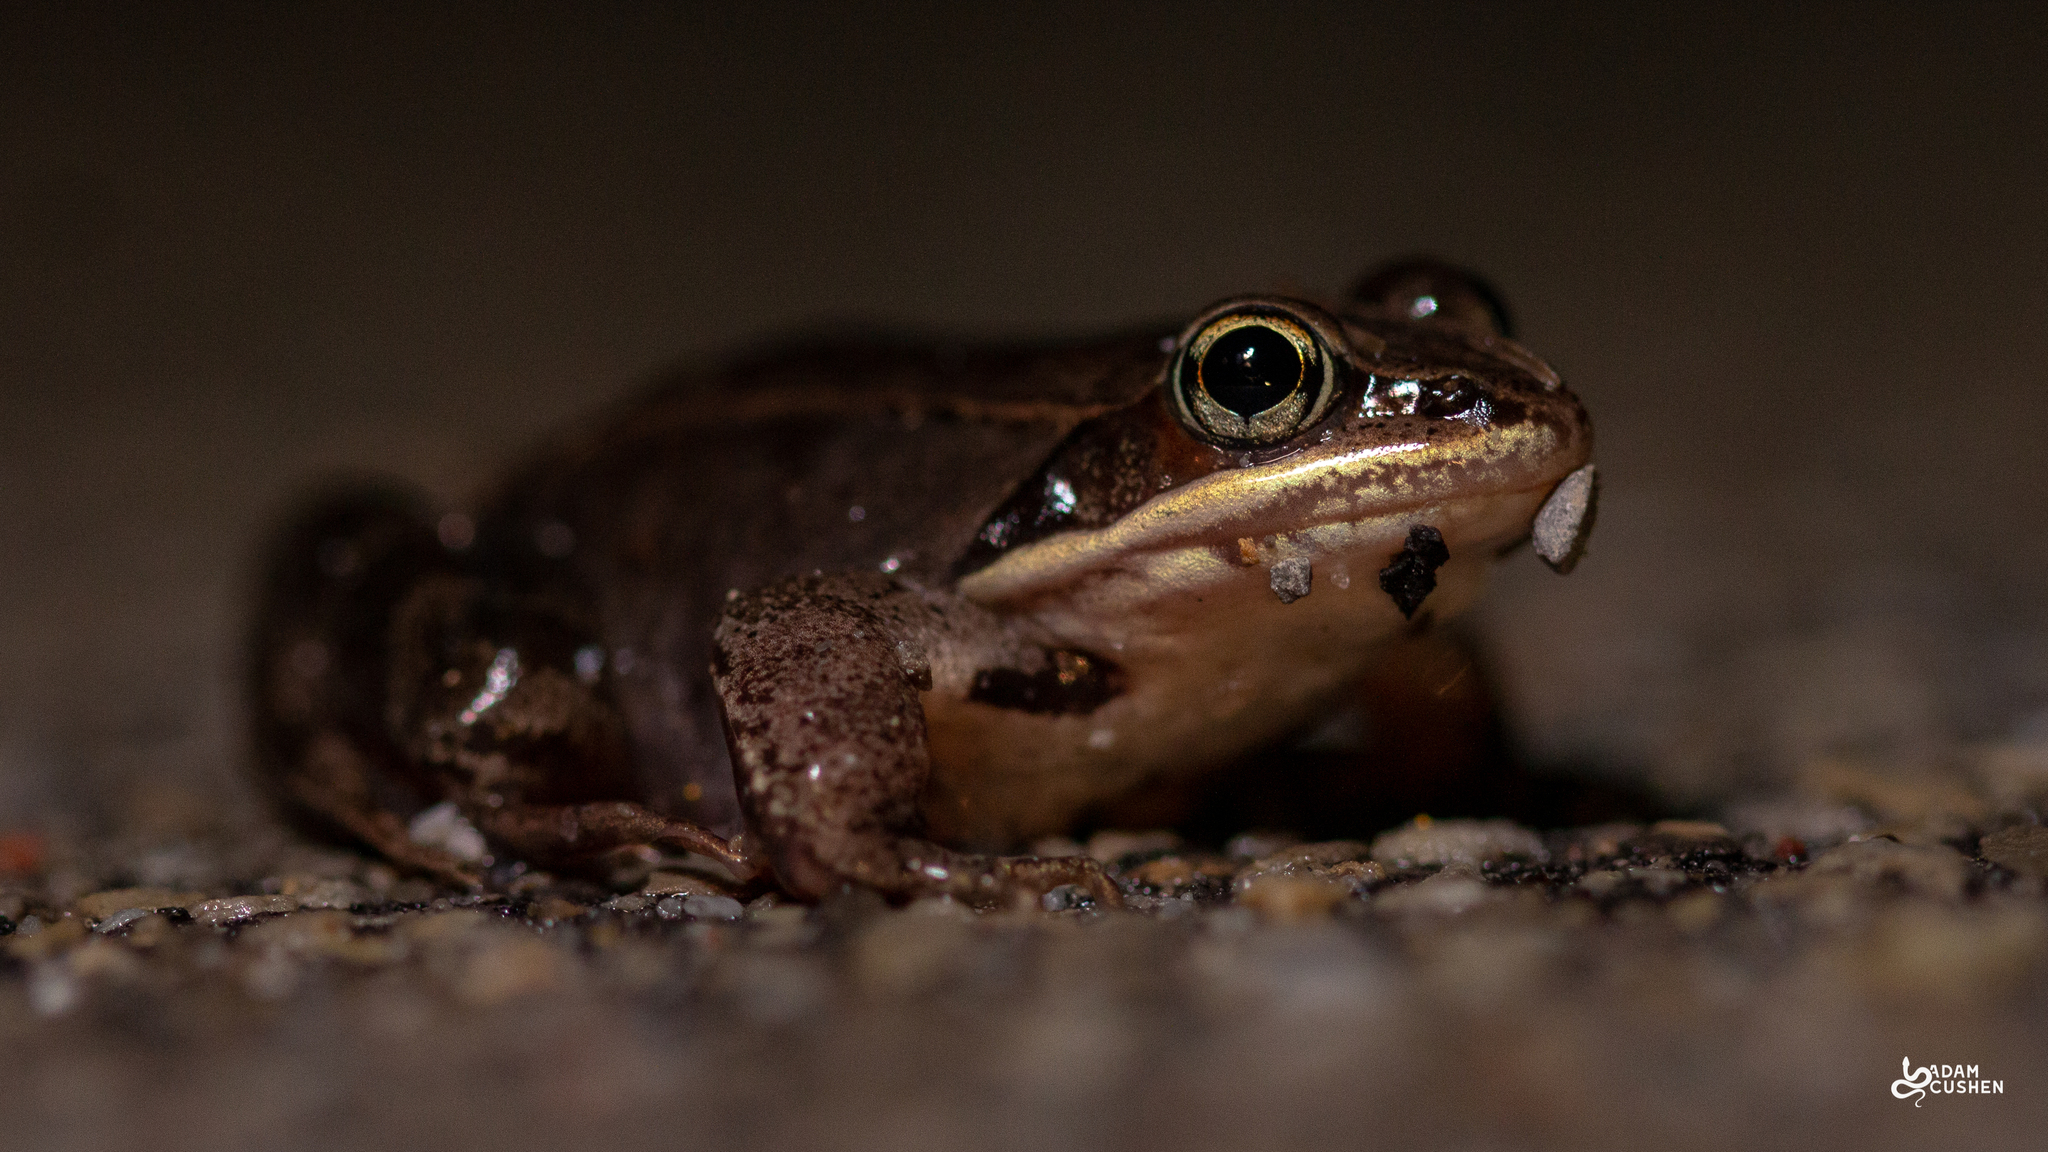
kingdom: Animalia
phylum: Chordata
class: Amphibia
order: Anura
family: Ranidae
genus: Lithobates
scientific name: Lithobates sylvaticus
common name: Wood frog
